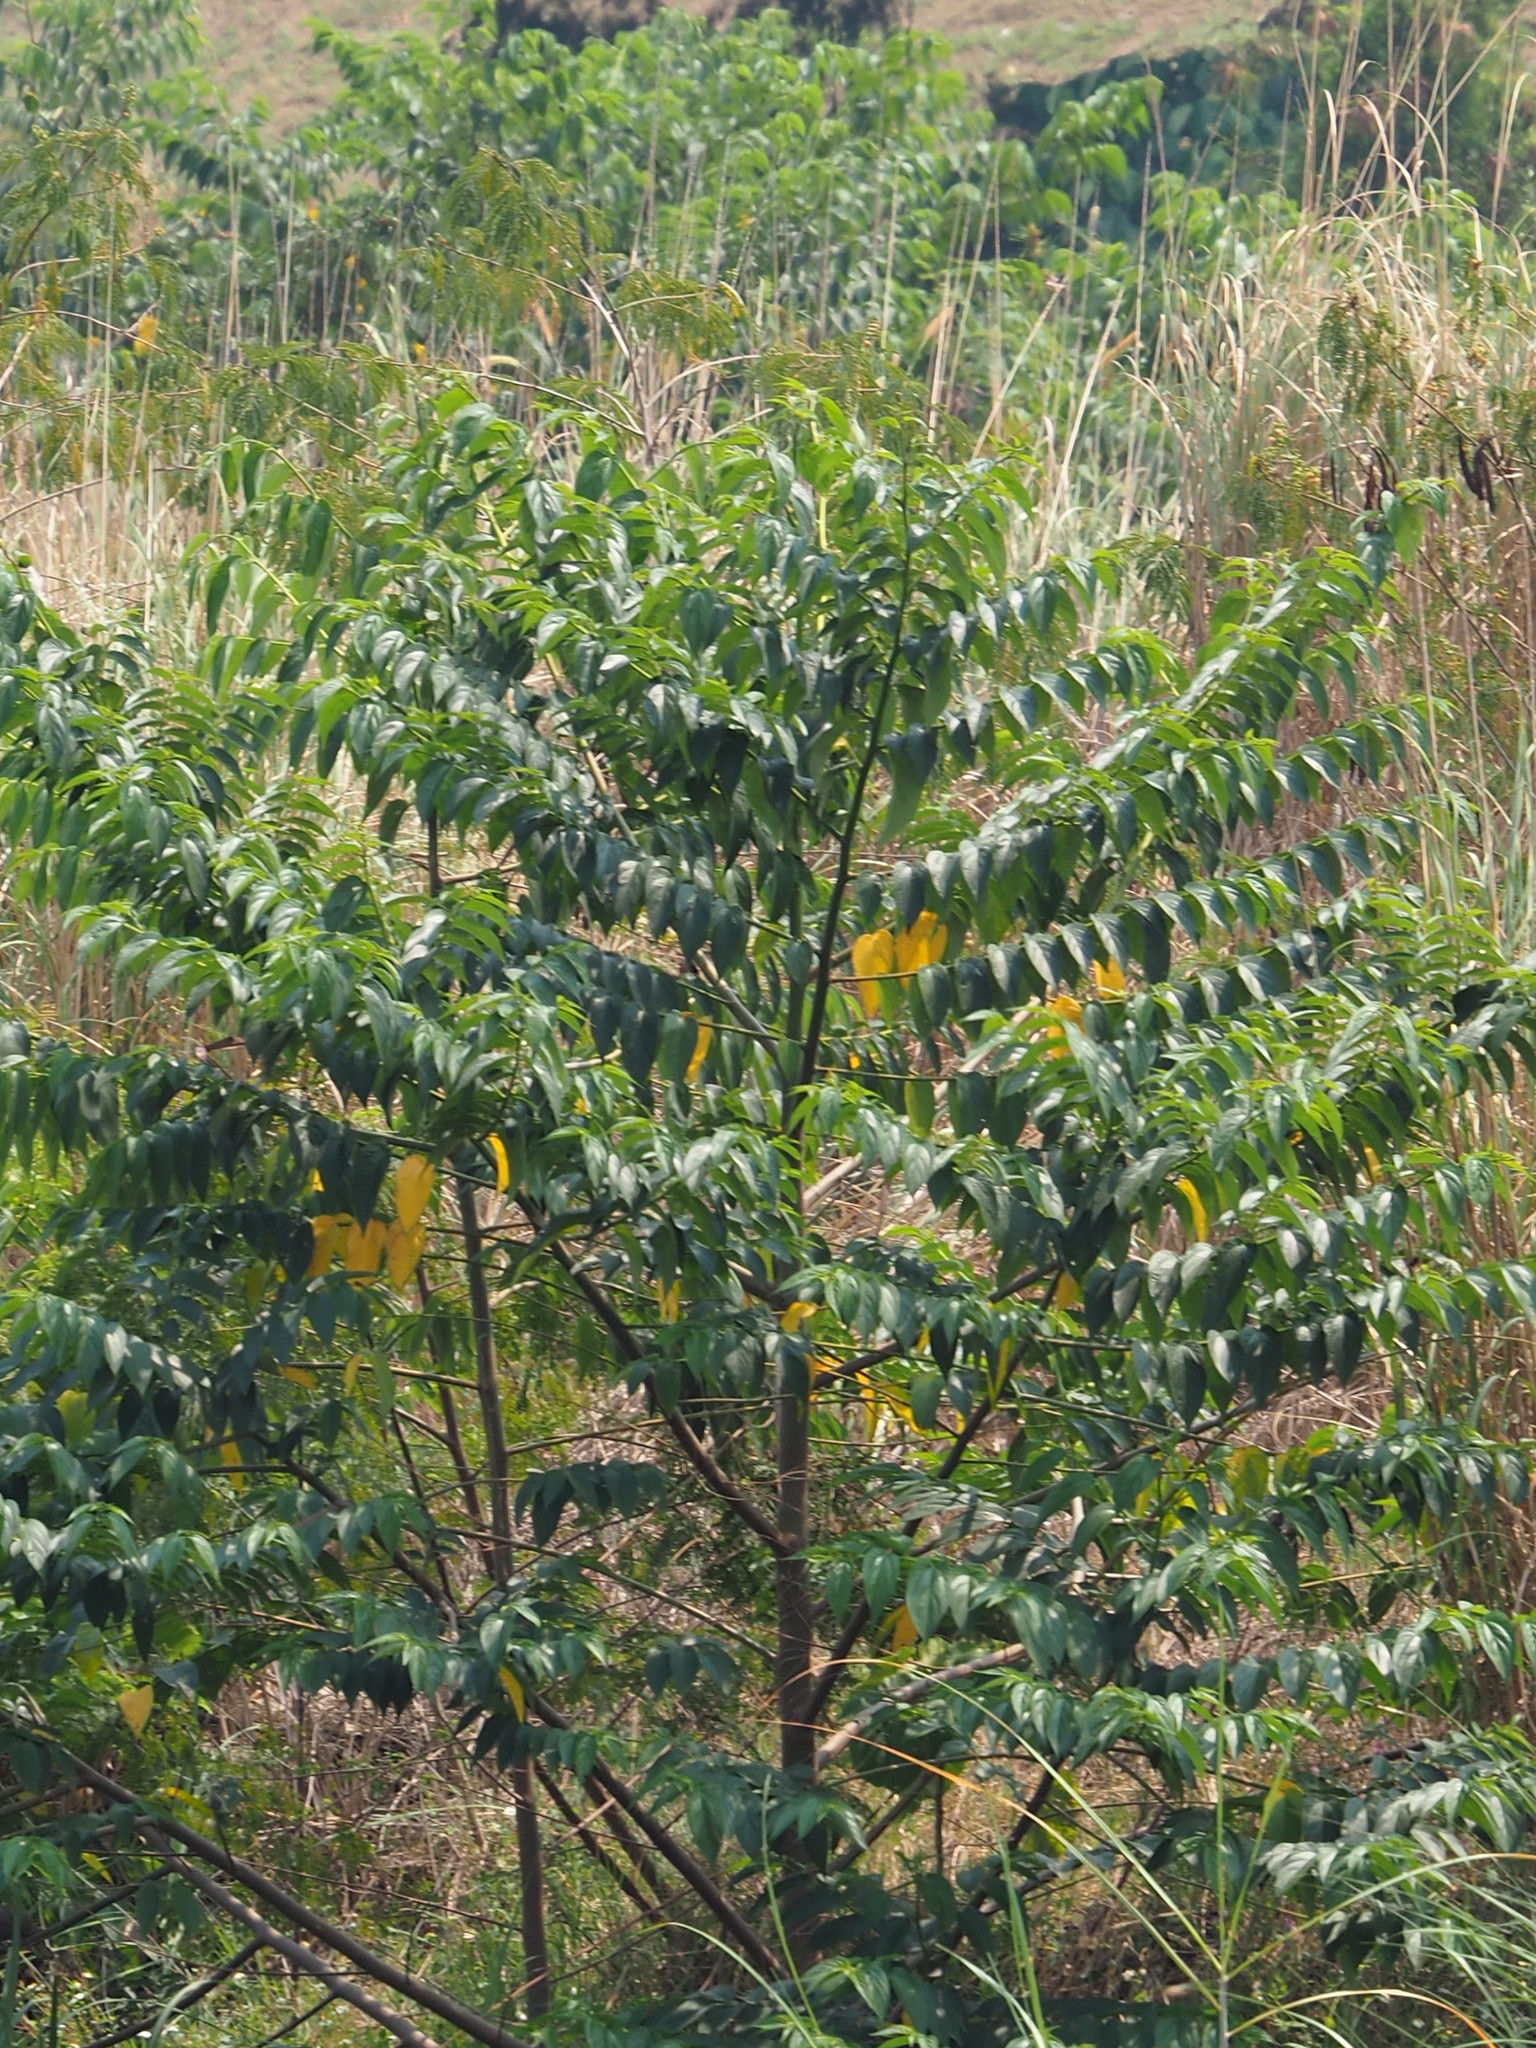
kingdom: Plantae
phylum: Tracheophyta
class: Magnoliopsida
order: Rosales
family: Cannabaceae
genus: Trema
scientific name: Trema orientale
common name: Indian charcoal tree
